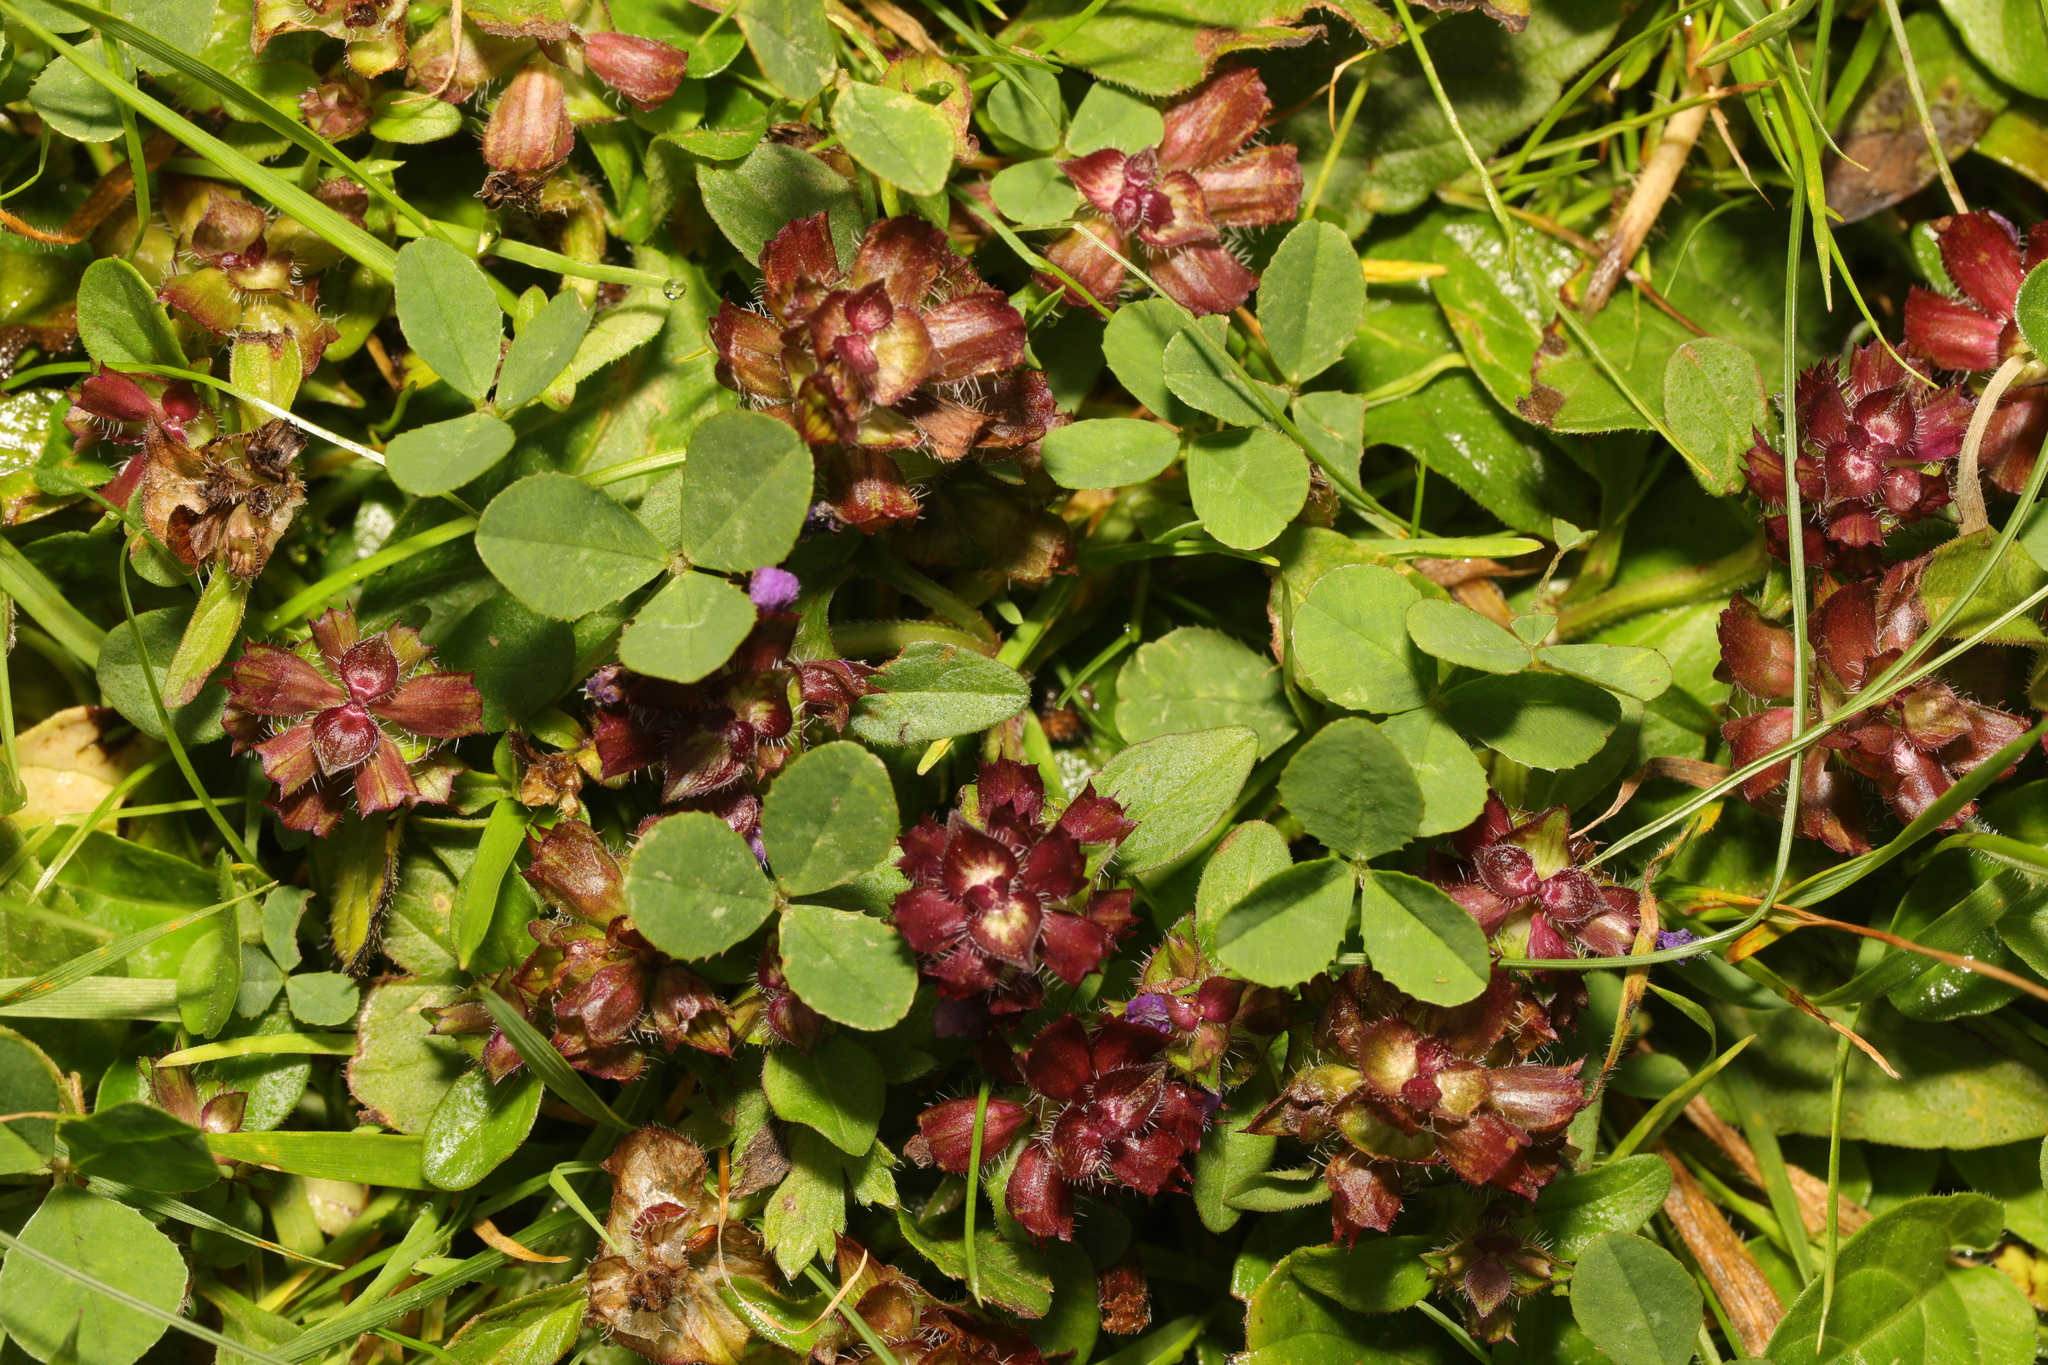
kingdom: Plantae
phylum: Tracheophyta
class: Magnoliopsida
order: Lamiales
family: Lamiaceae
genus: Prunella
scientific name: Prunella vulgaris
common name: Heal-all
